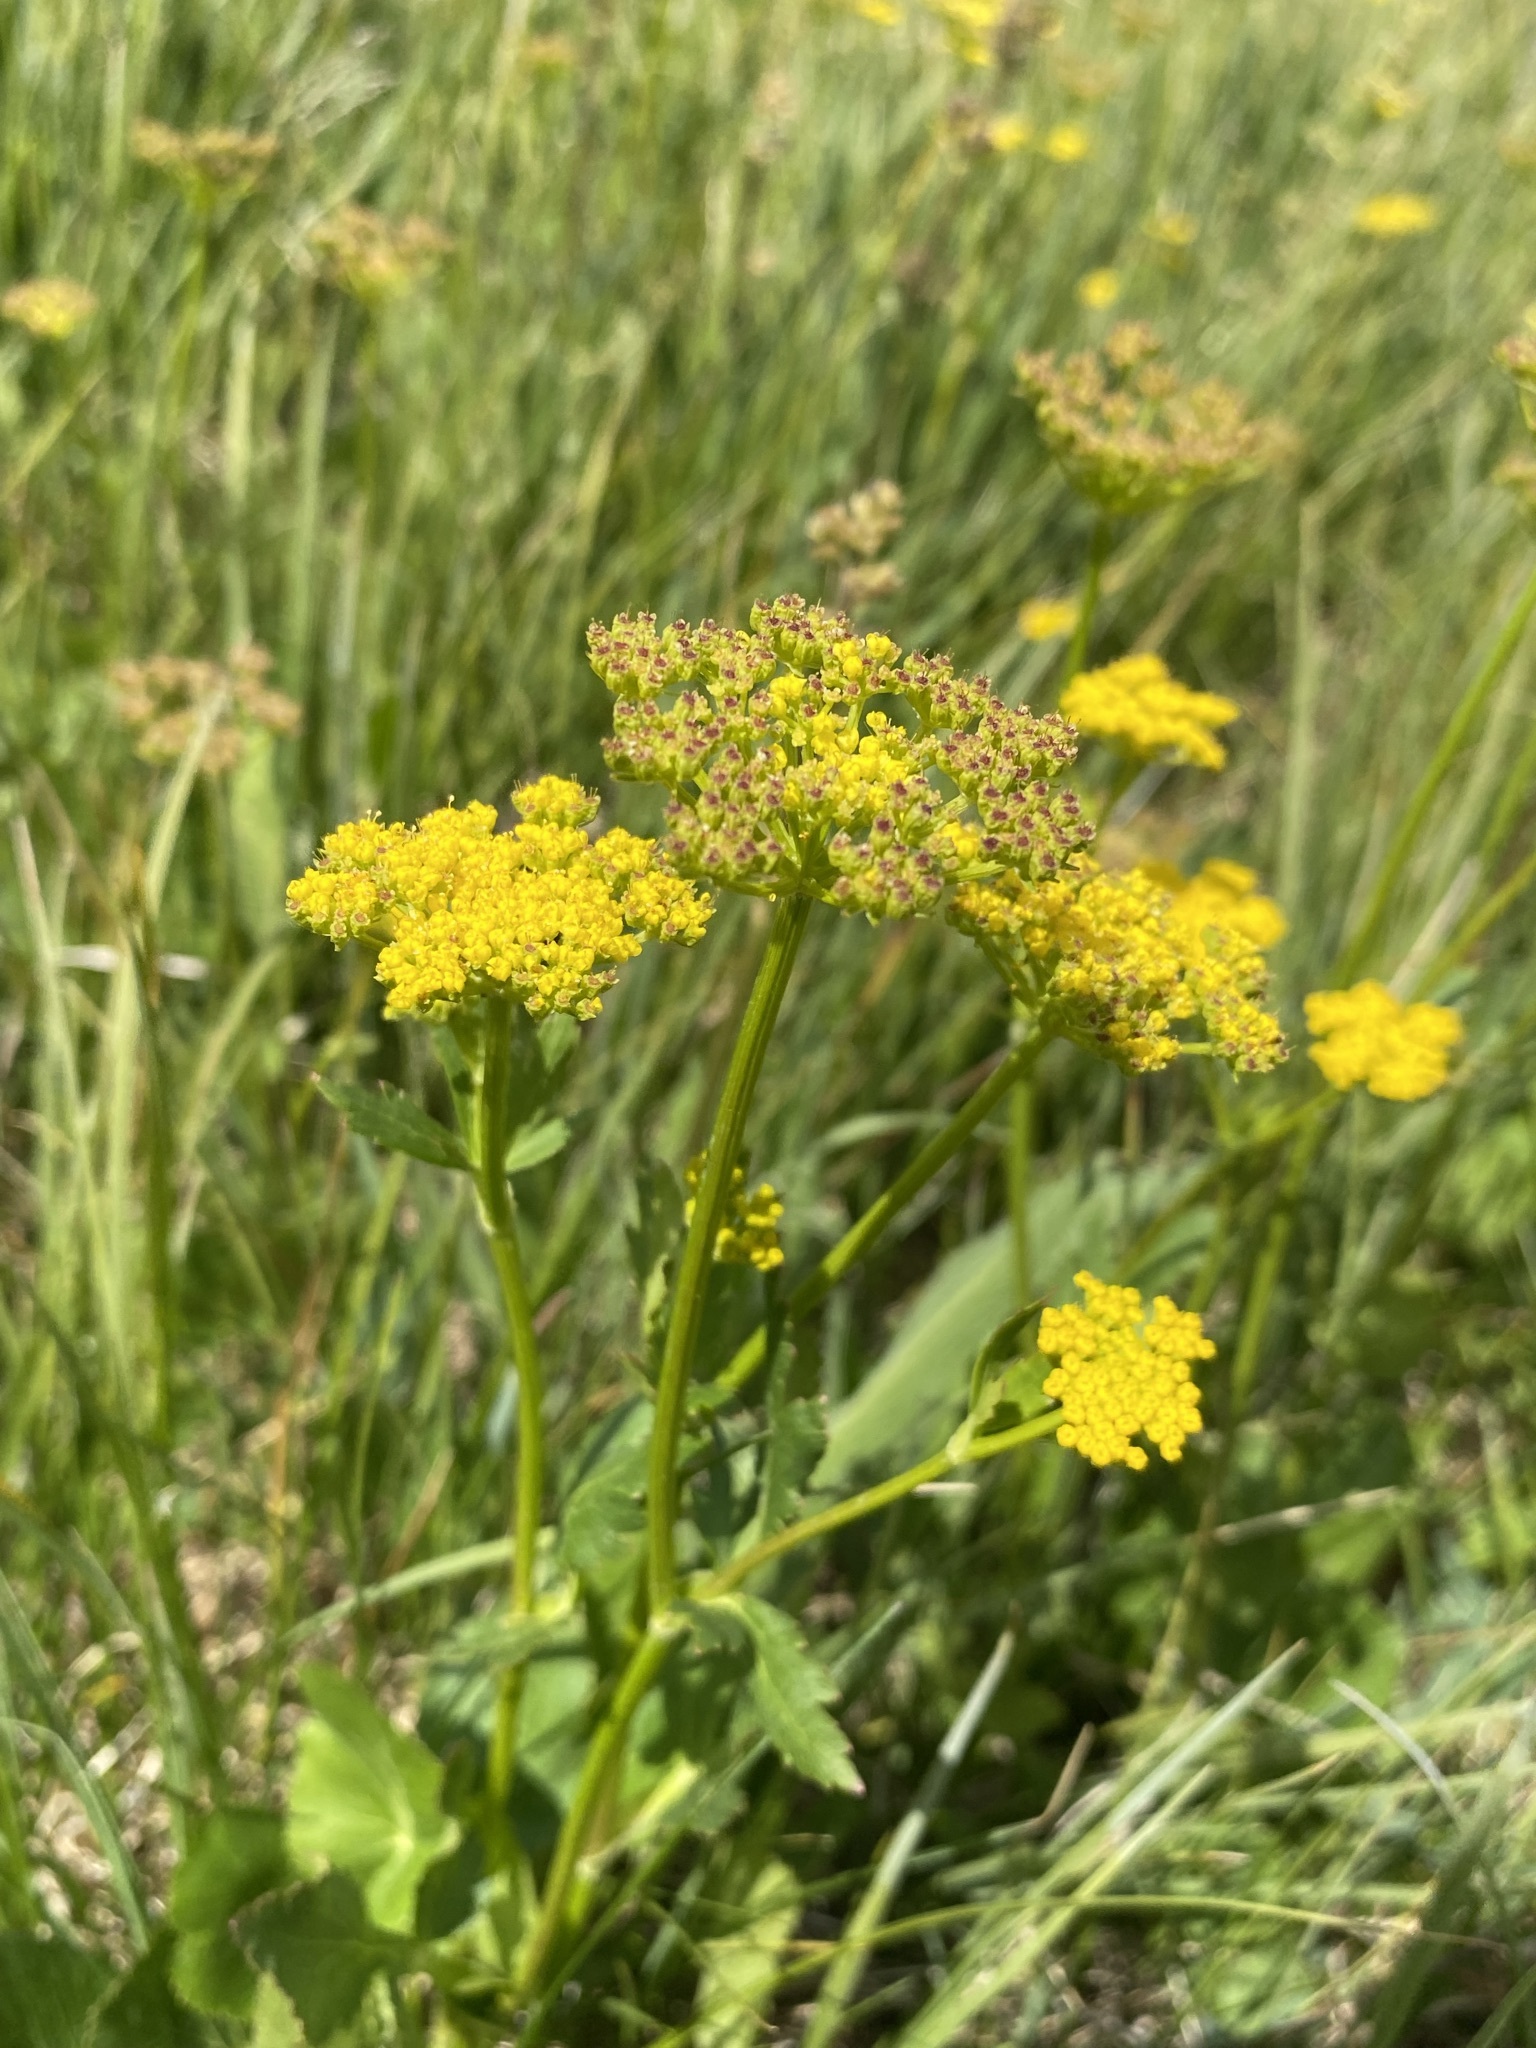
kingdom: Plantae
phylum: Tracheophyta
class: Magnoliopsida
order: Apiales
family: Apiaceae
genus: Zizia
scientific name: Zizia aptera
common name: Heart-leaved alexanders
